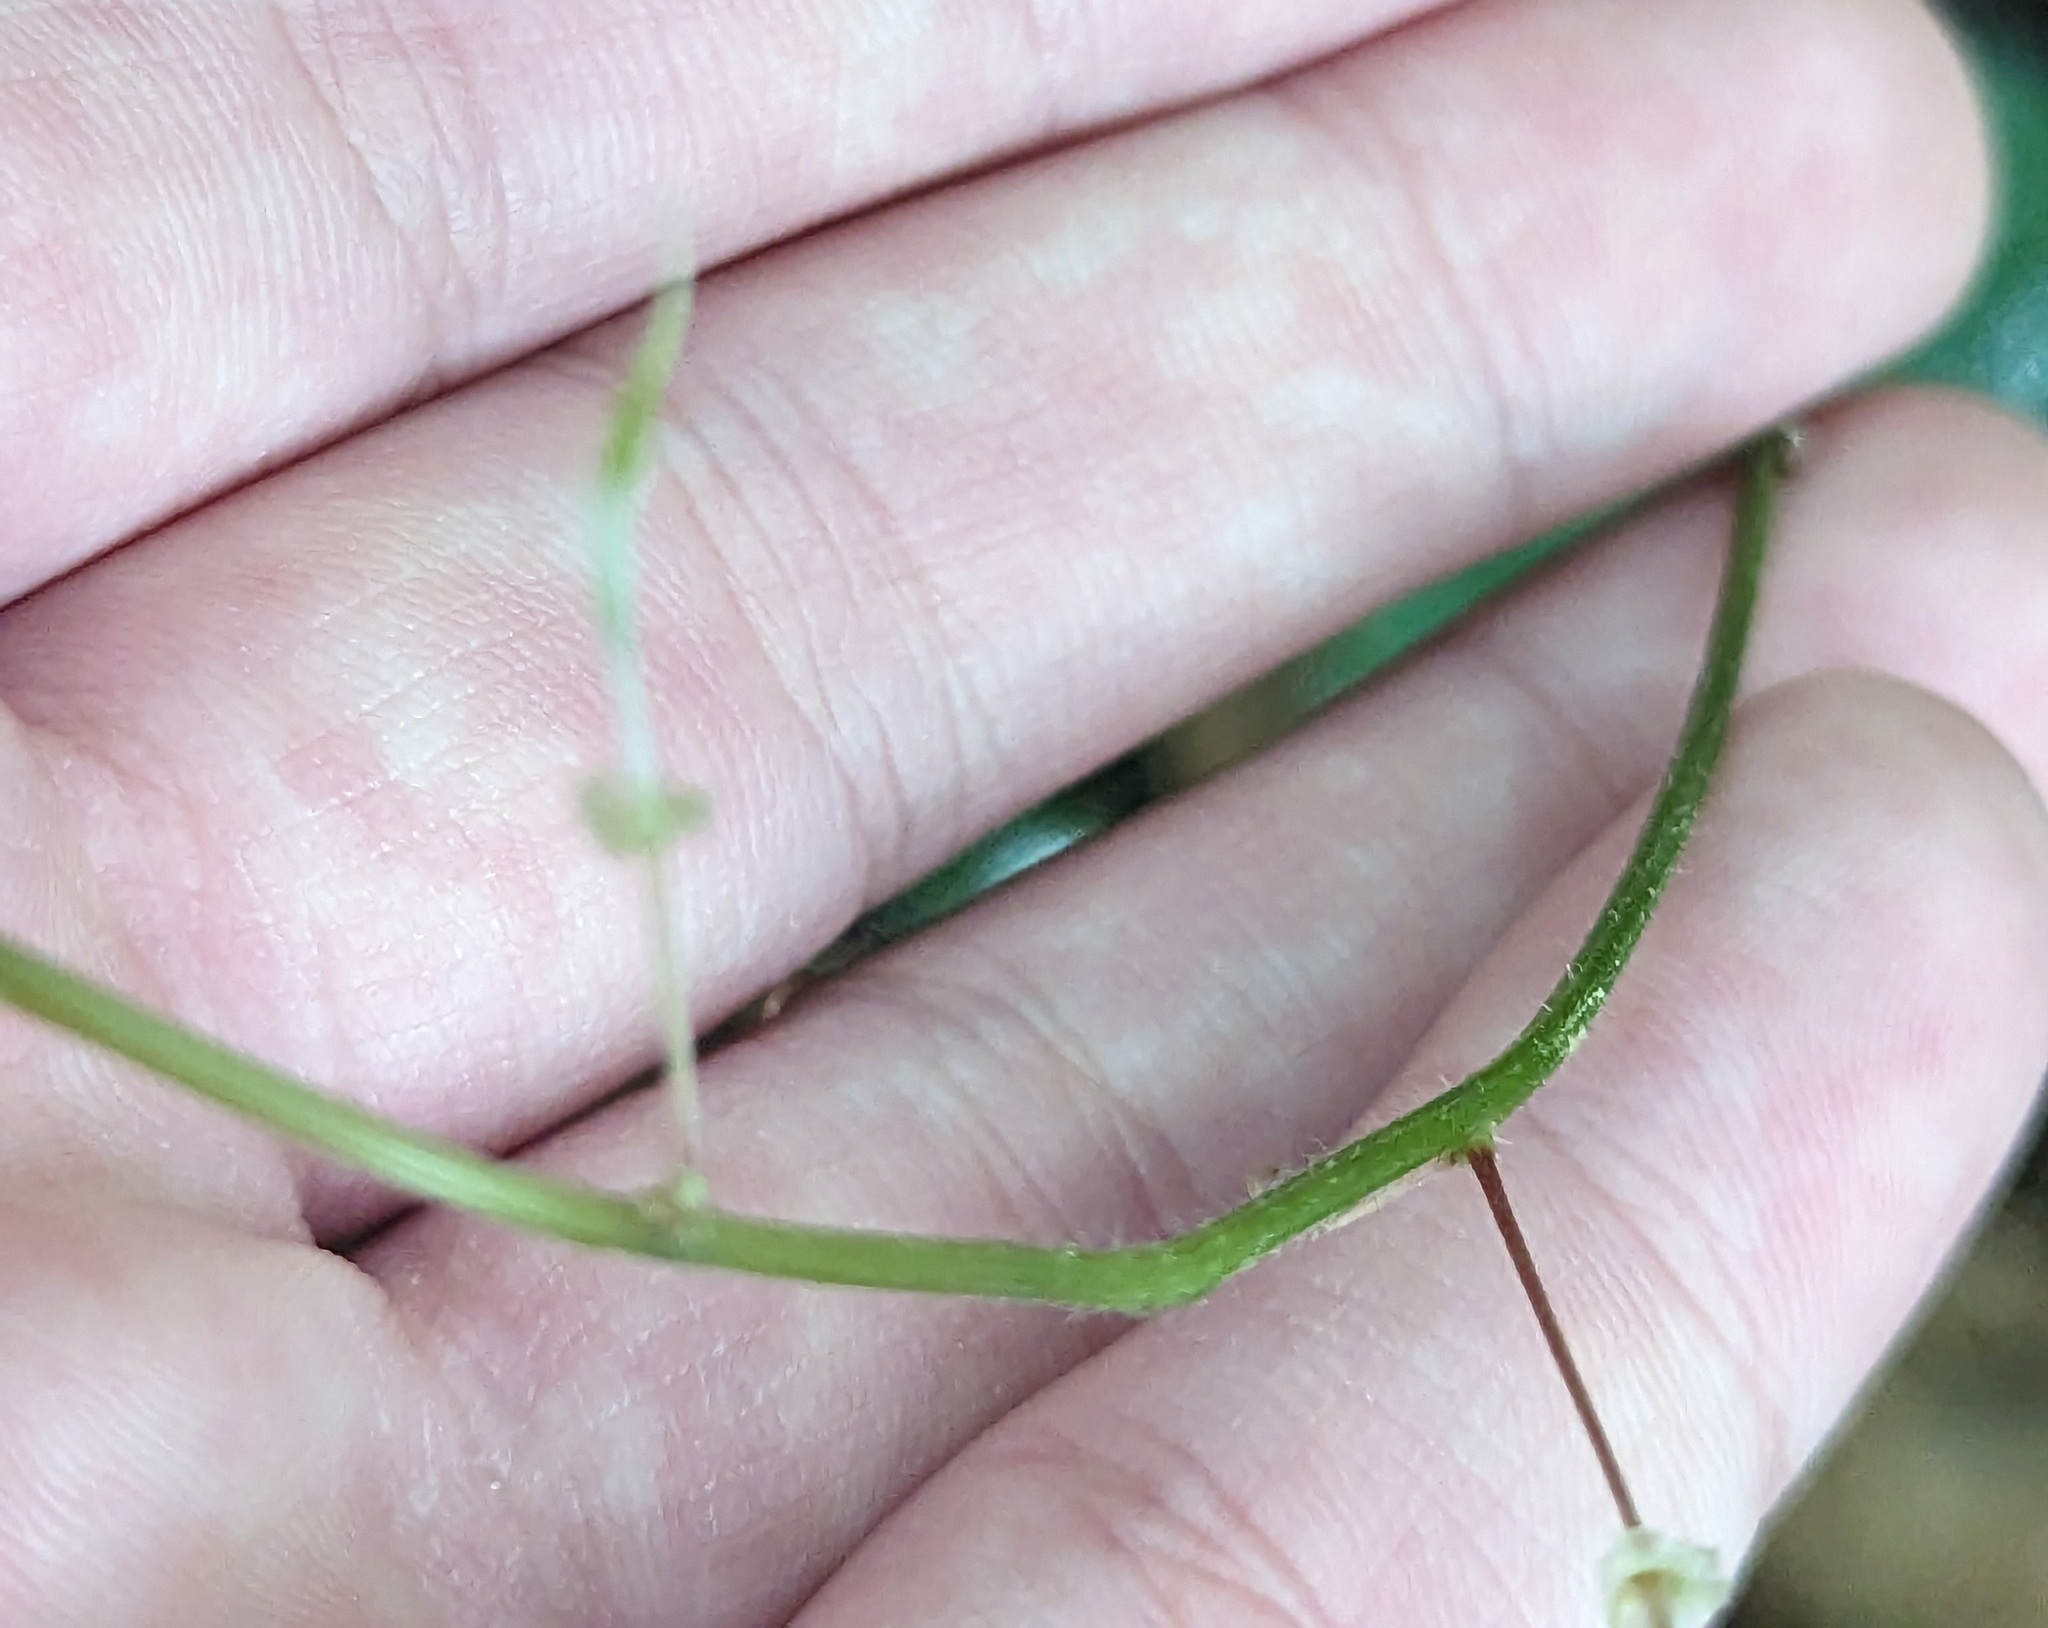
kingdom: Plantae
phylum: Tracheophyta
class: Magnoliopsida
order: Fabales
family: Fabaceae
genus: Hylodesmum
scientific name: Hylodesmum nudiflorum
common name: Bare-stemmed tick-trefoil
